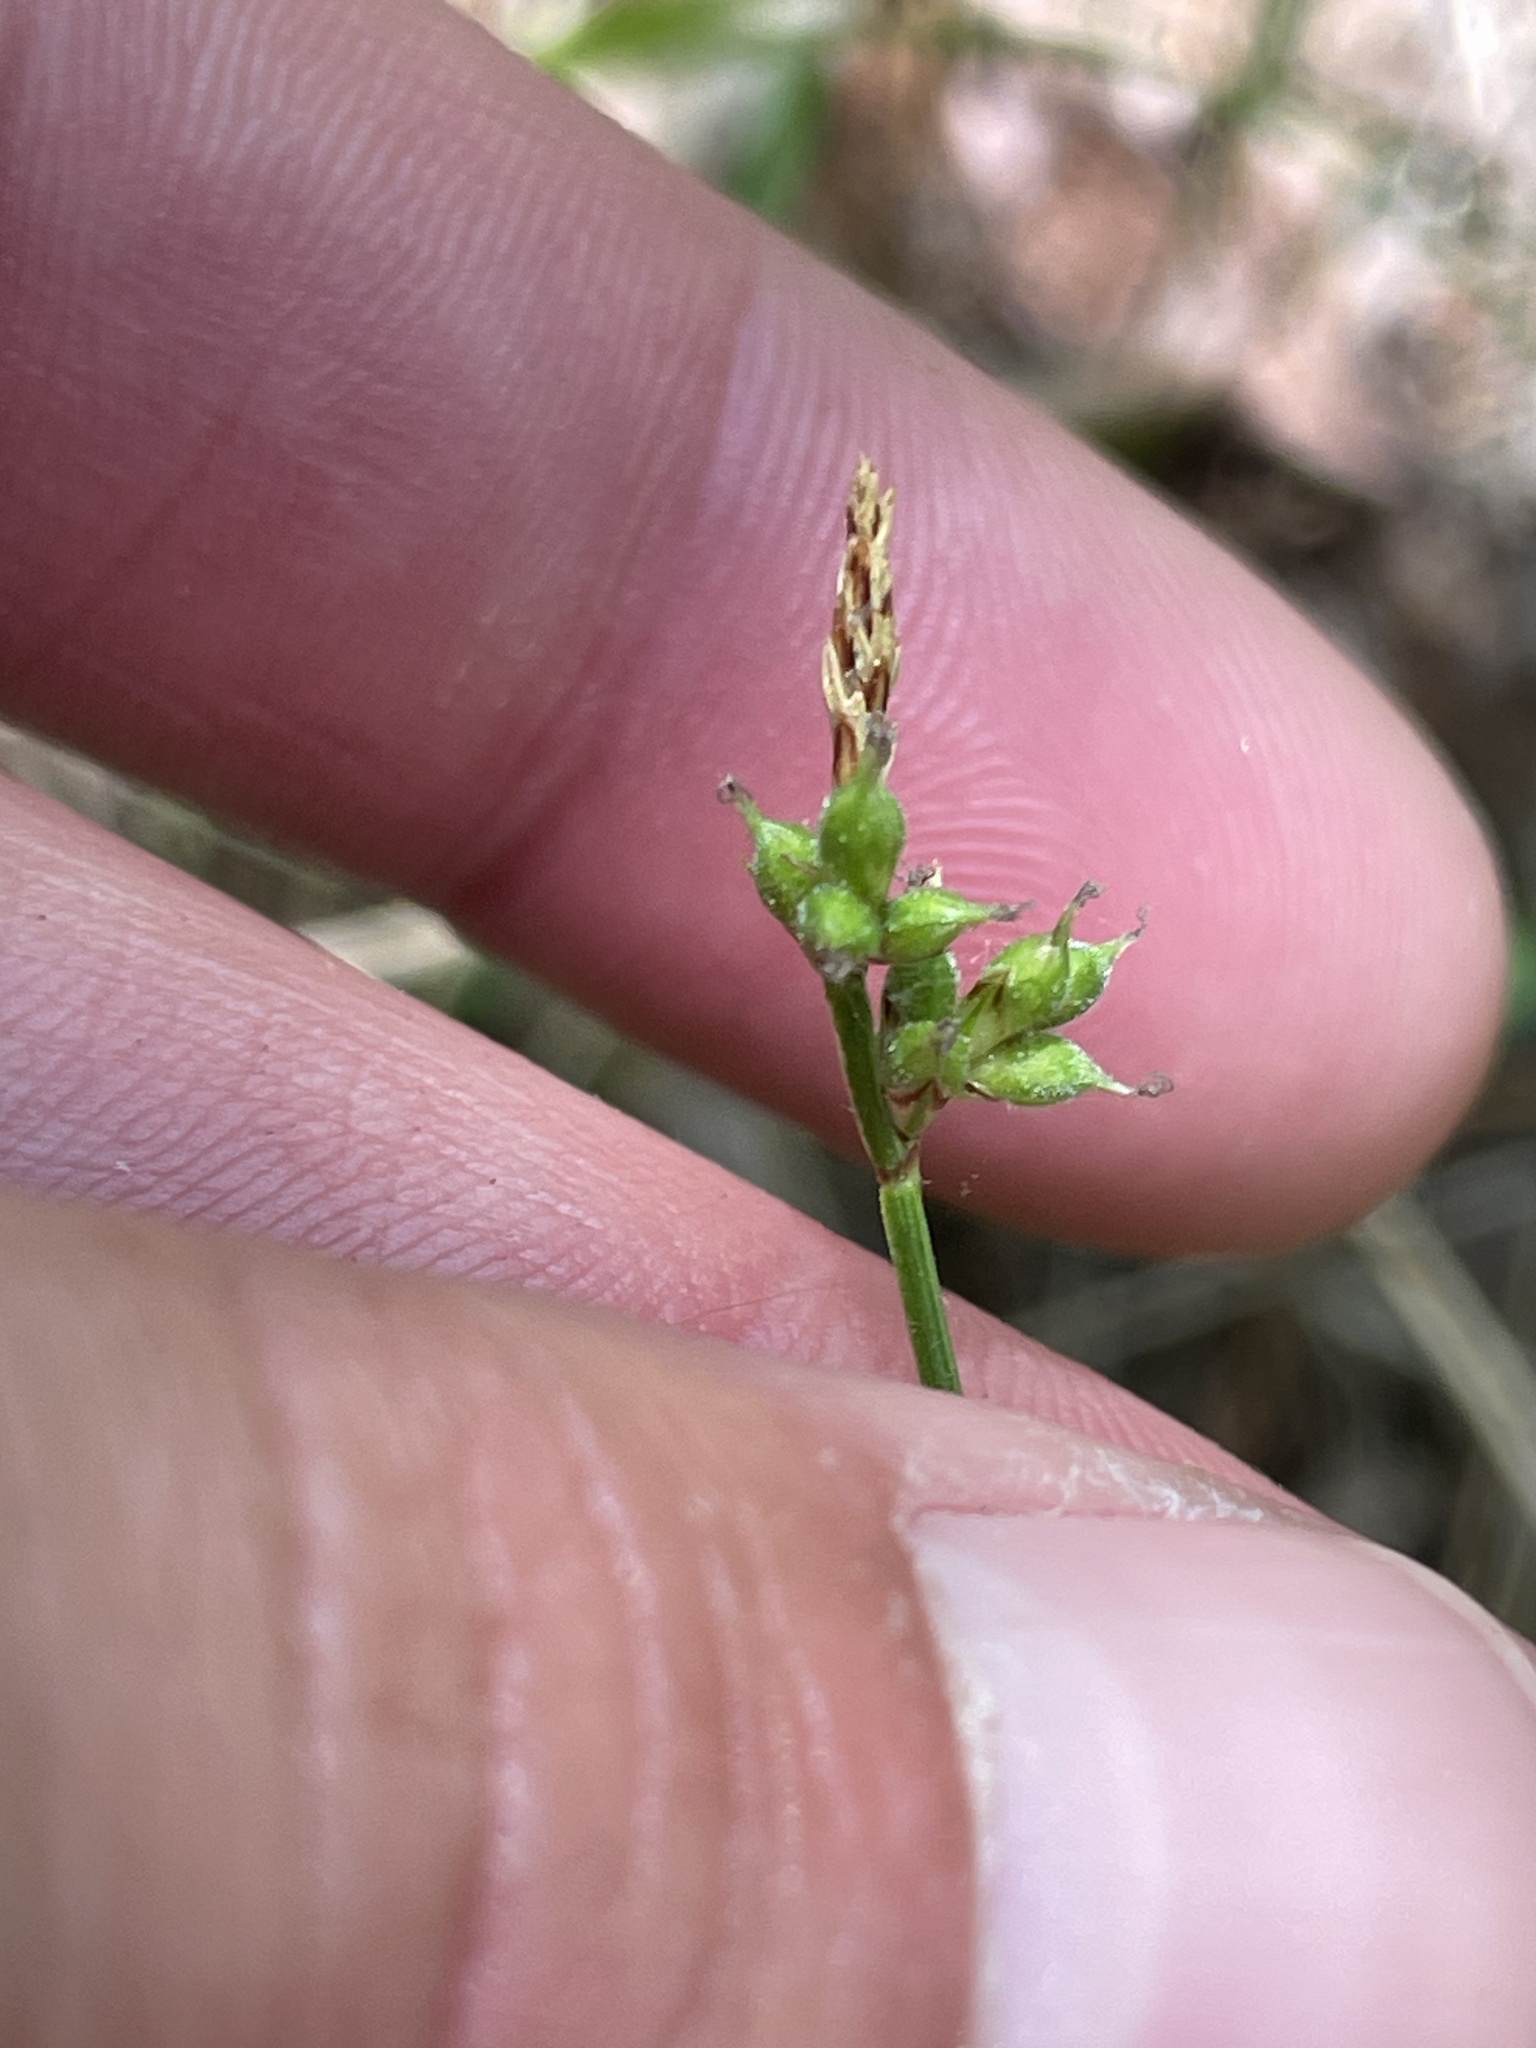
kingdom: Plantae
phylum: Tracheophyta
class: Liliopsida
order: Poales
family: Cyperaceae
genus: Carex
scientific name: Carex peckii
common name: Peck's oak sedge
